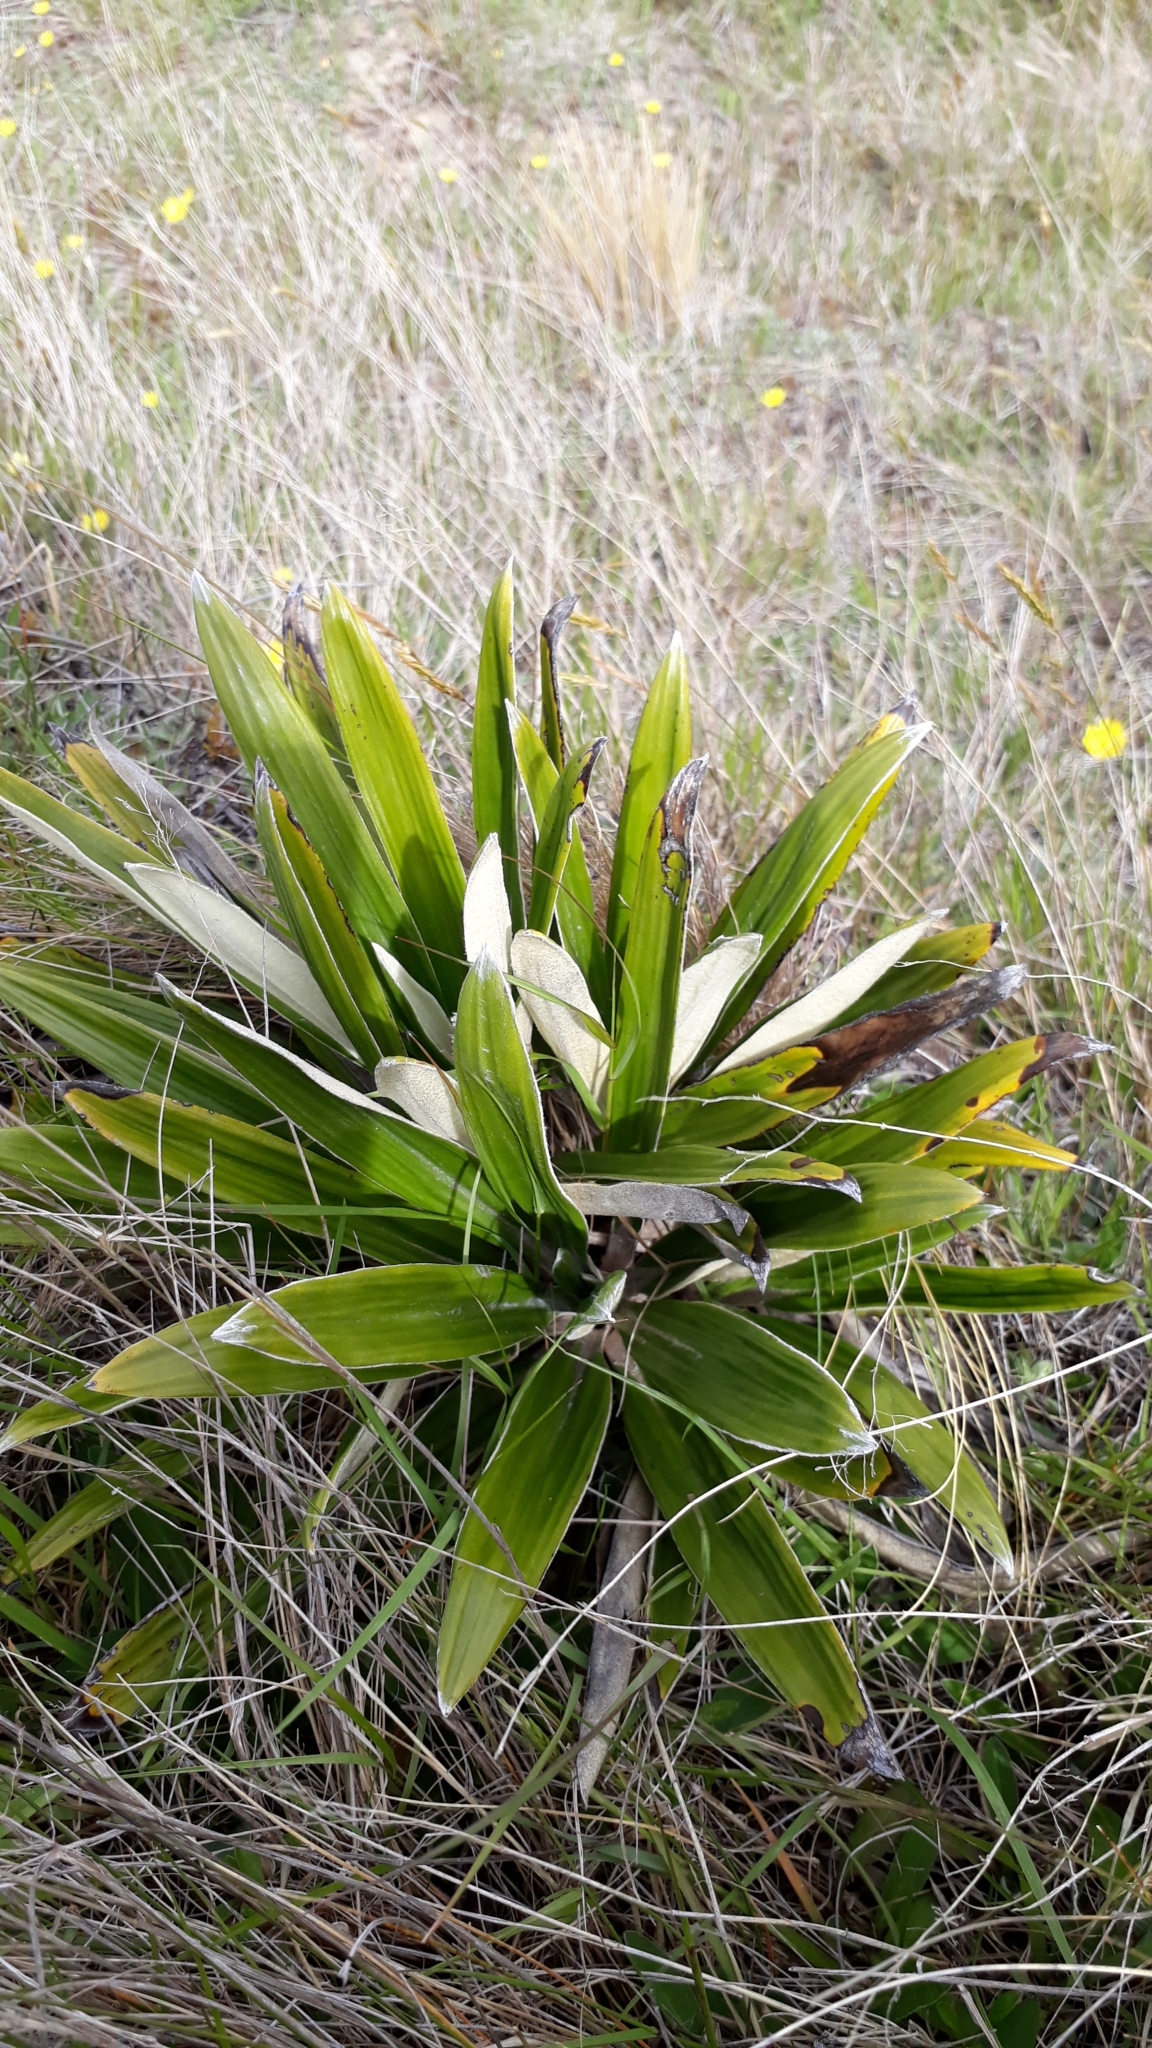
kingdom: Plantae
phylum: Tracheophyta
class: Magnoliopsida
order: Asterales
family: Asteraceae
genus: Celmisia
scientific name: Celmisia spectabilis
